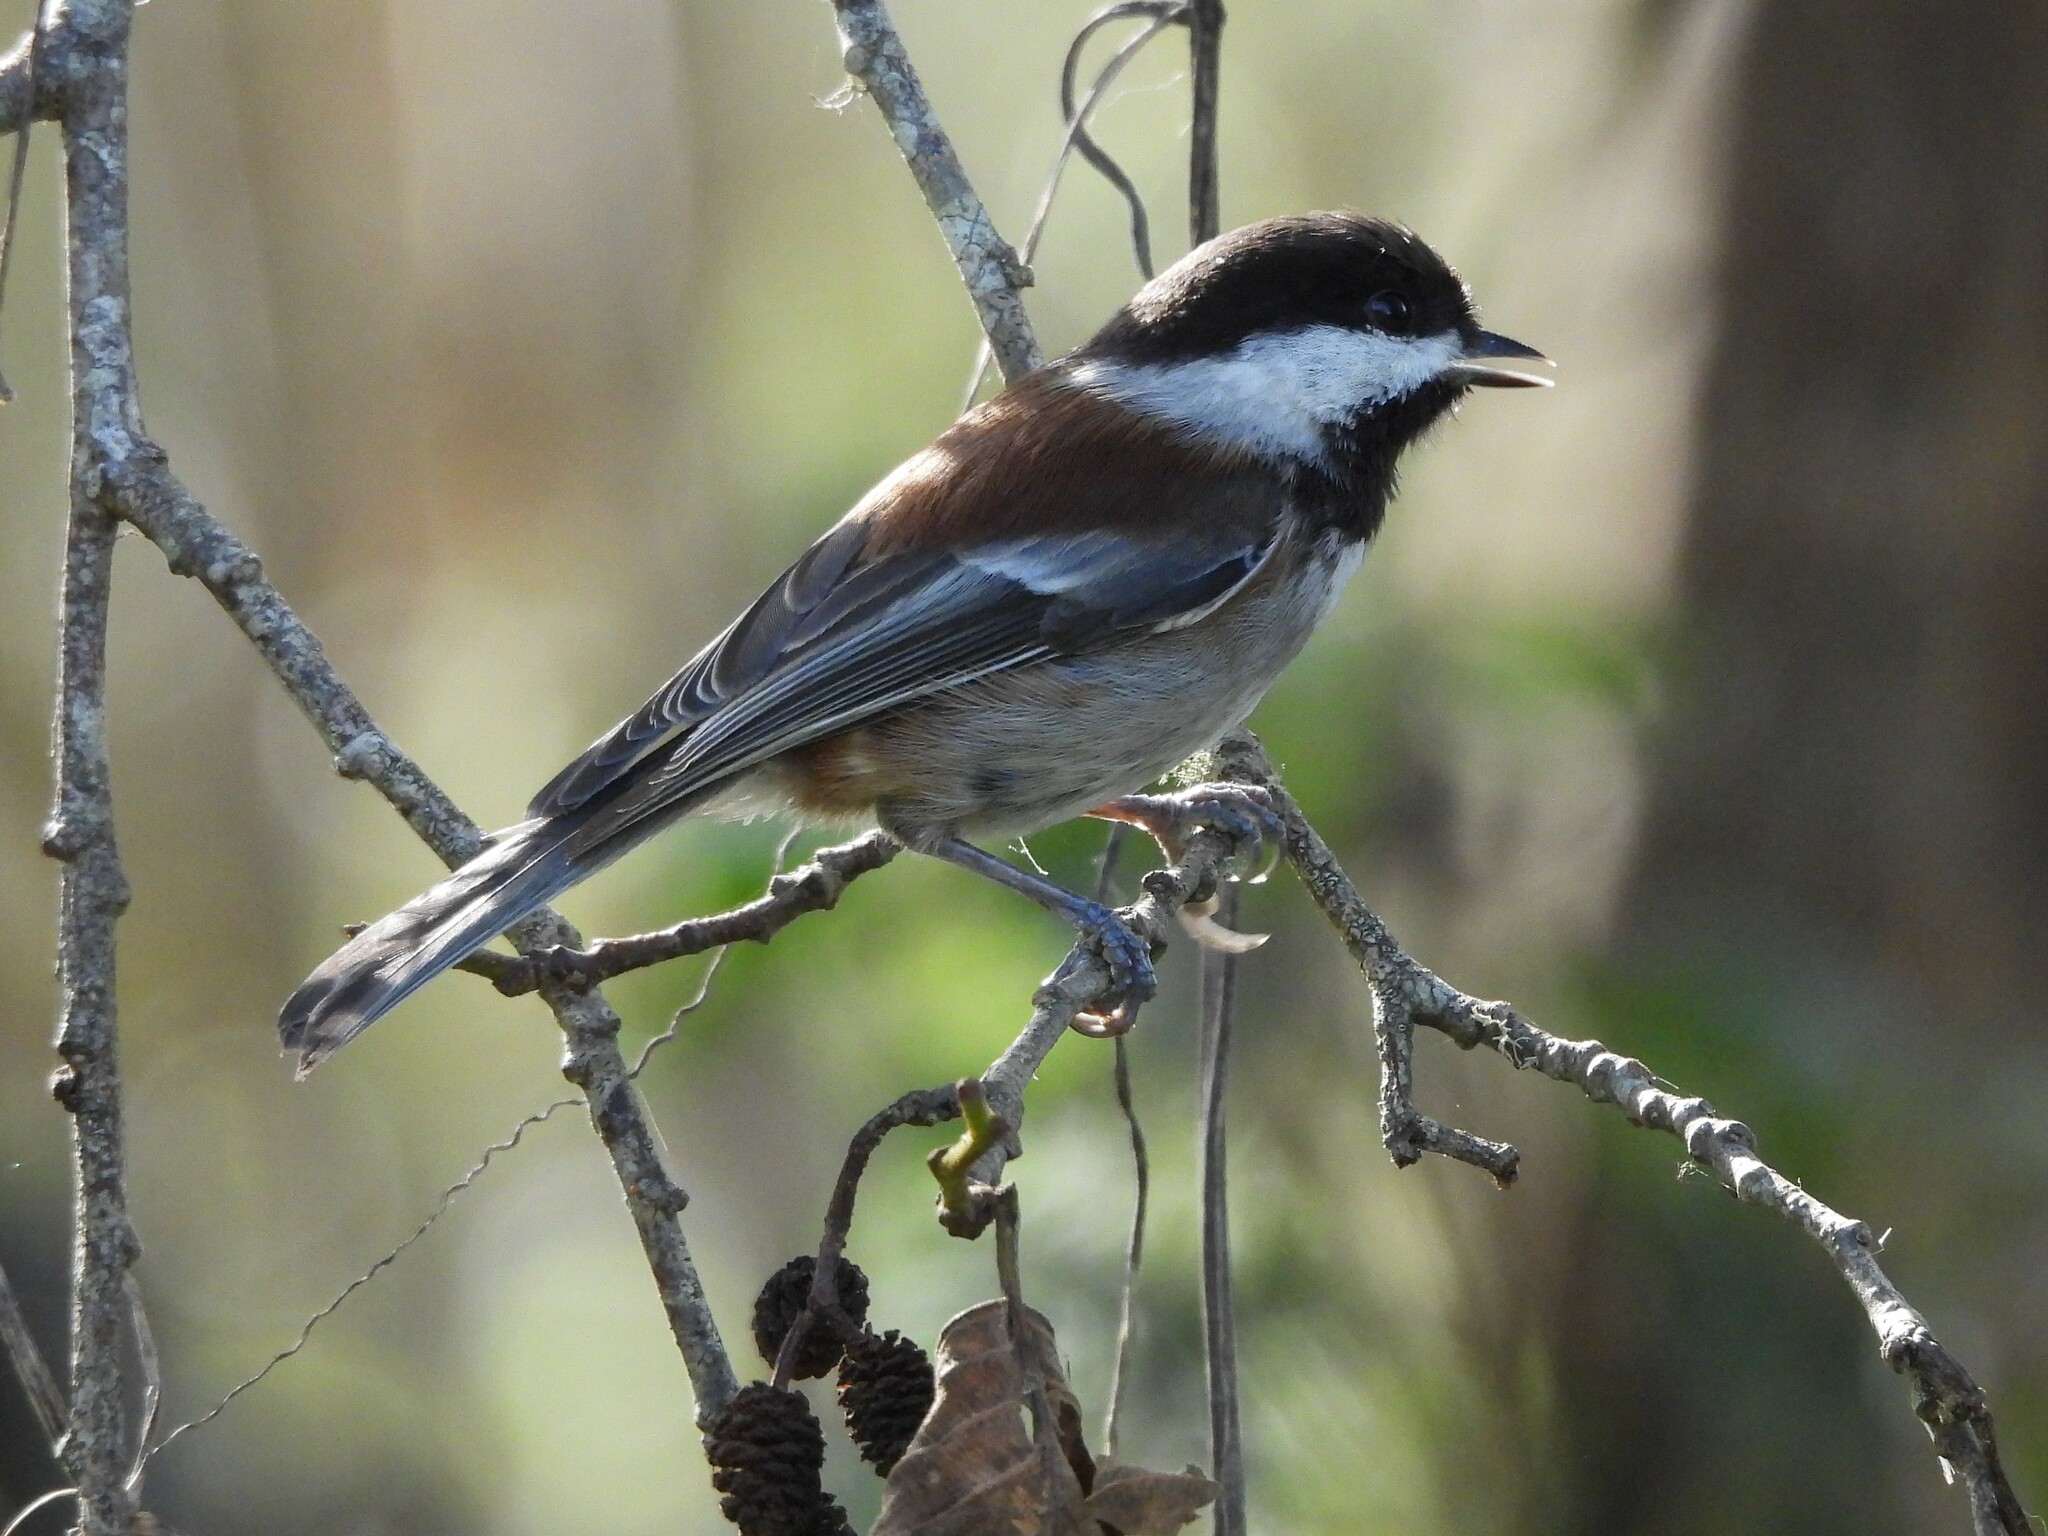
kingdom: Animalia
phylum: Chordata
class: Aves
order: Passeriformes
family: Paridae
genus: Poecile
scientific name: Poecile rufescens
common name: Chestnut-backed chickadee
